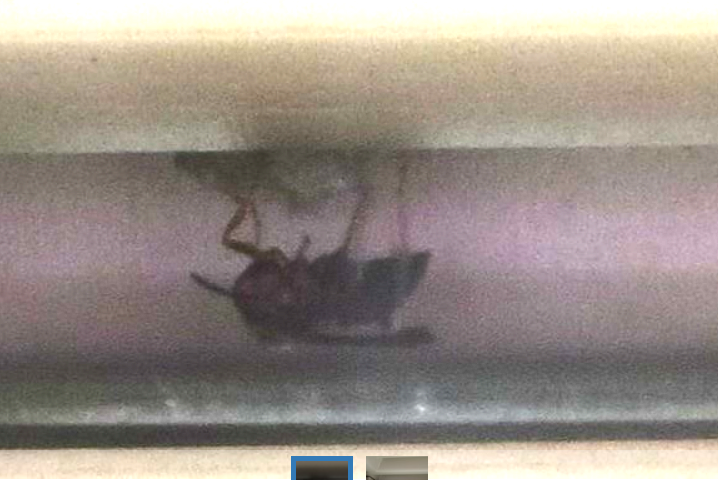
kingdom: Animalia
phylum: Arthropoda
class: Insecta
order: Hymenoptera
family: Vespidae
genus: Fuscopolistes
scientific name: Fuscopolistes
